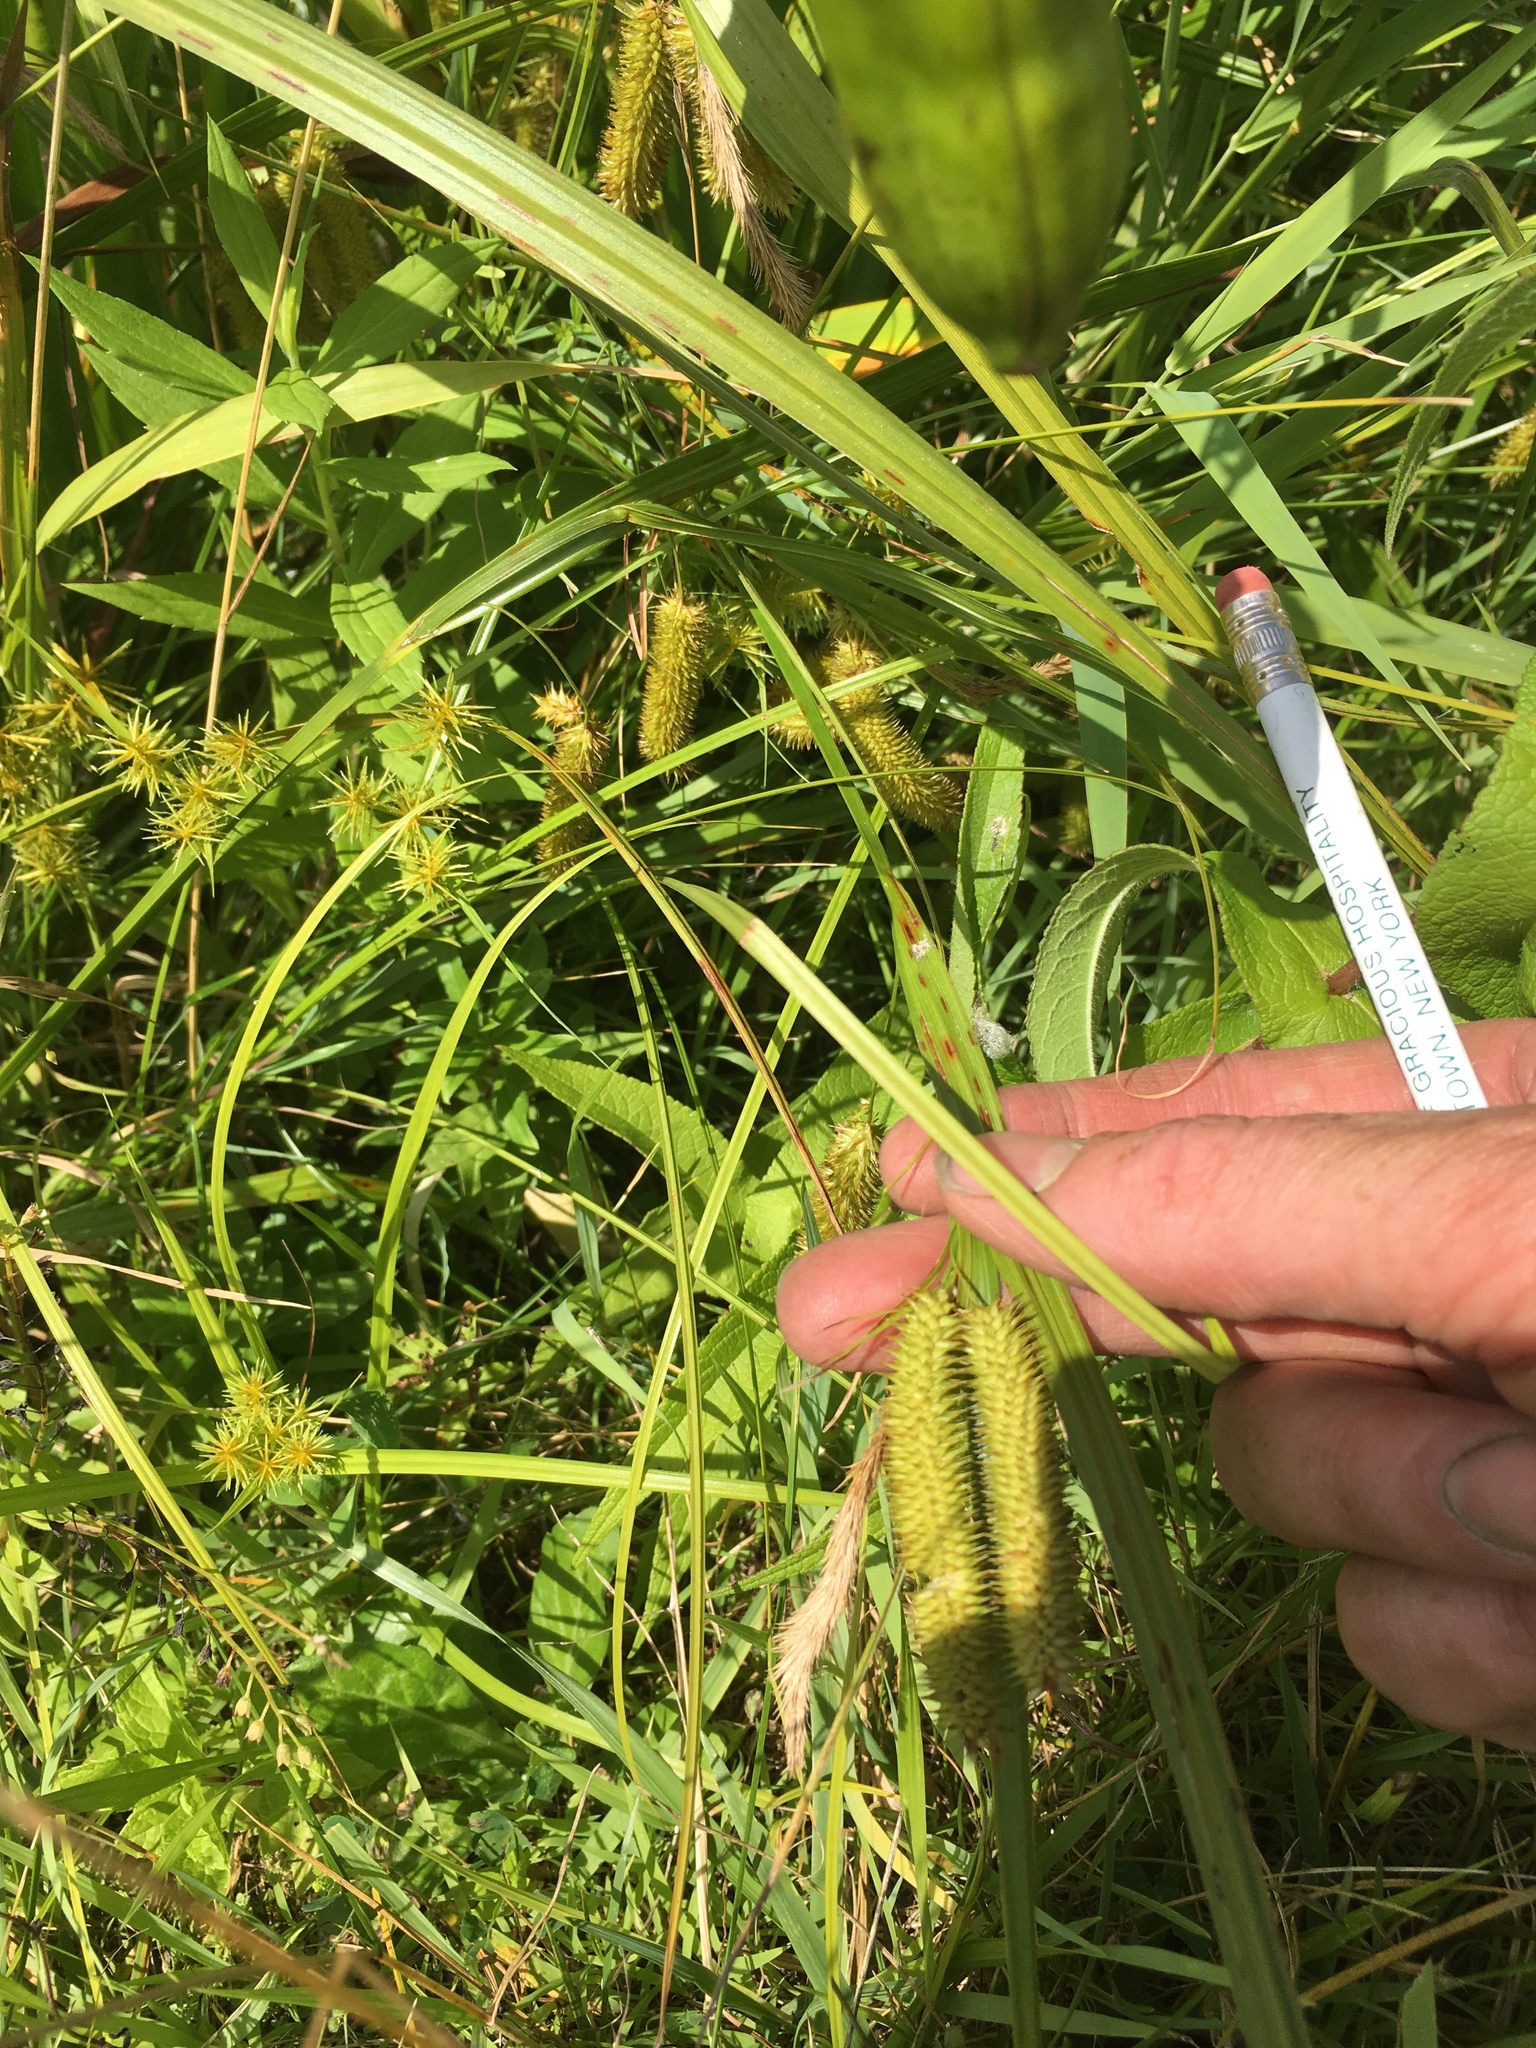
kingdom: Plantae
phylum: Tracheophyta
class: Liliopsida
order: Poales
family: Cyperaceae
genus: Carex
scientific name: Carex pseudocyperus
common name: Cyperus sedge
